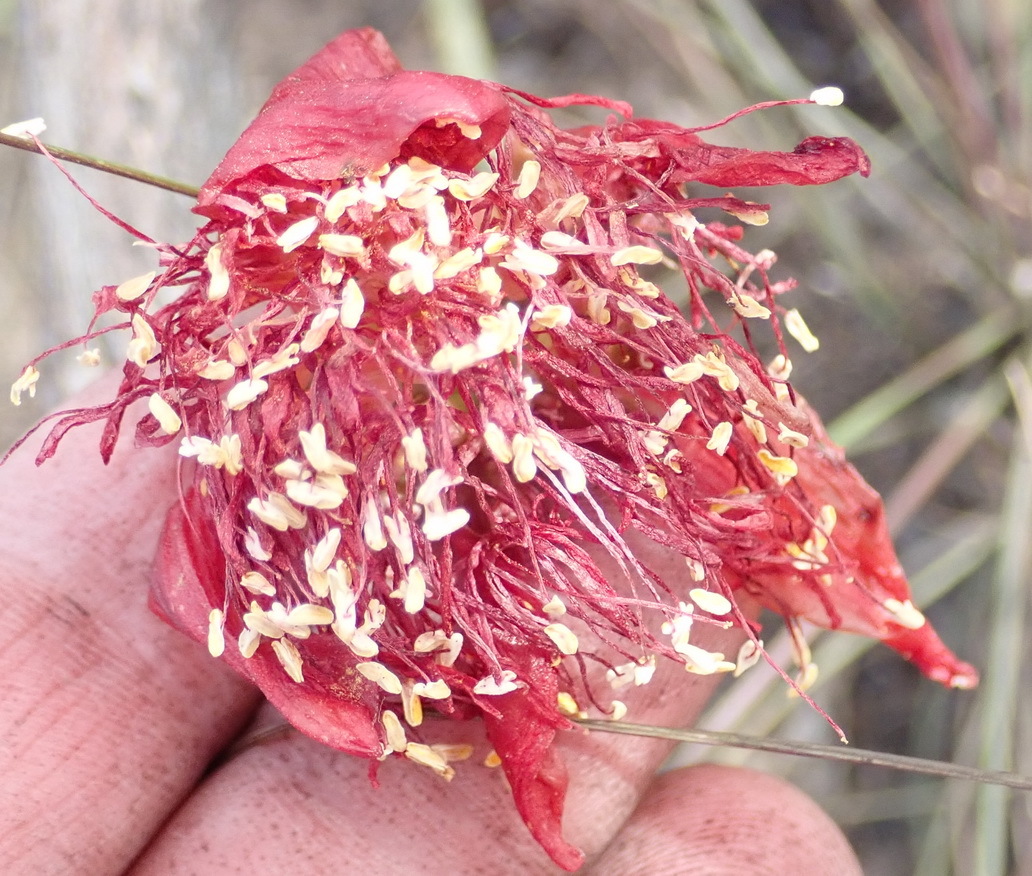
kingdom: Plantae
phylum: Tracheophyta
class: Liliopsida
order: Asparagales
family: Amaryllidaceae
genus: Haemanthus
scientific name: Haemanthus sanguineus
